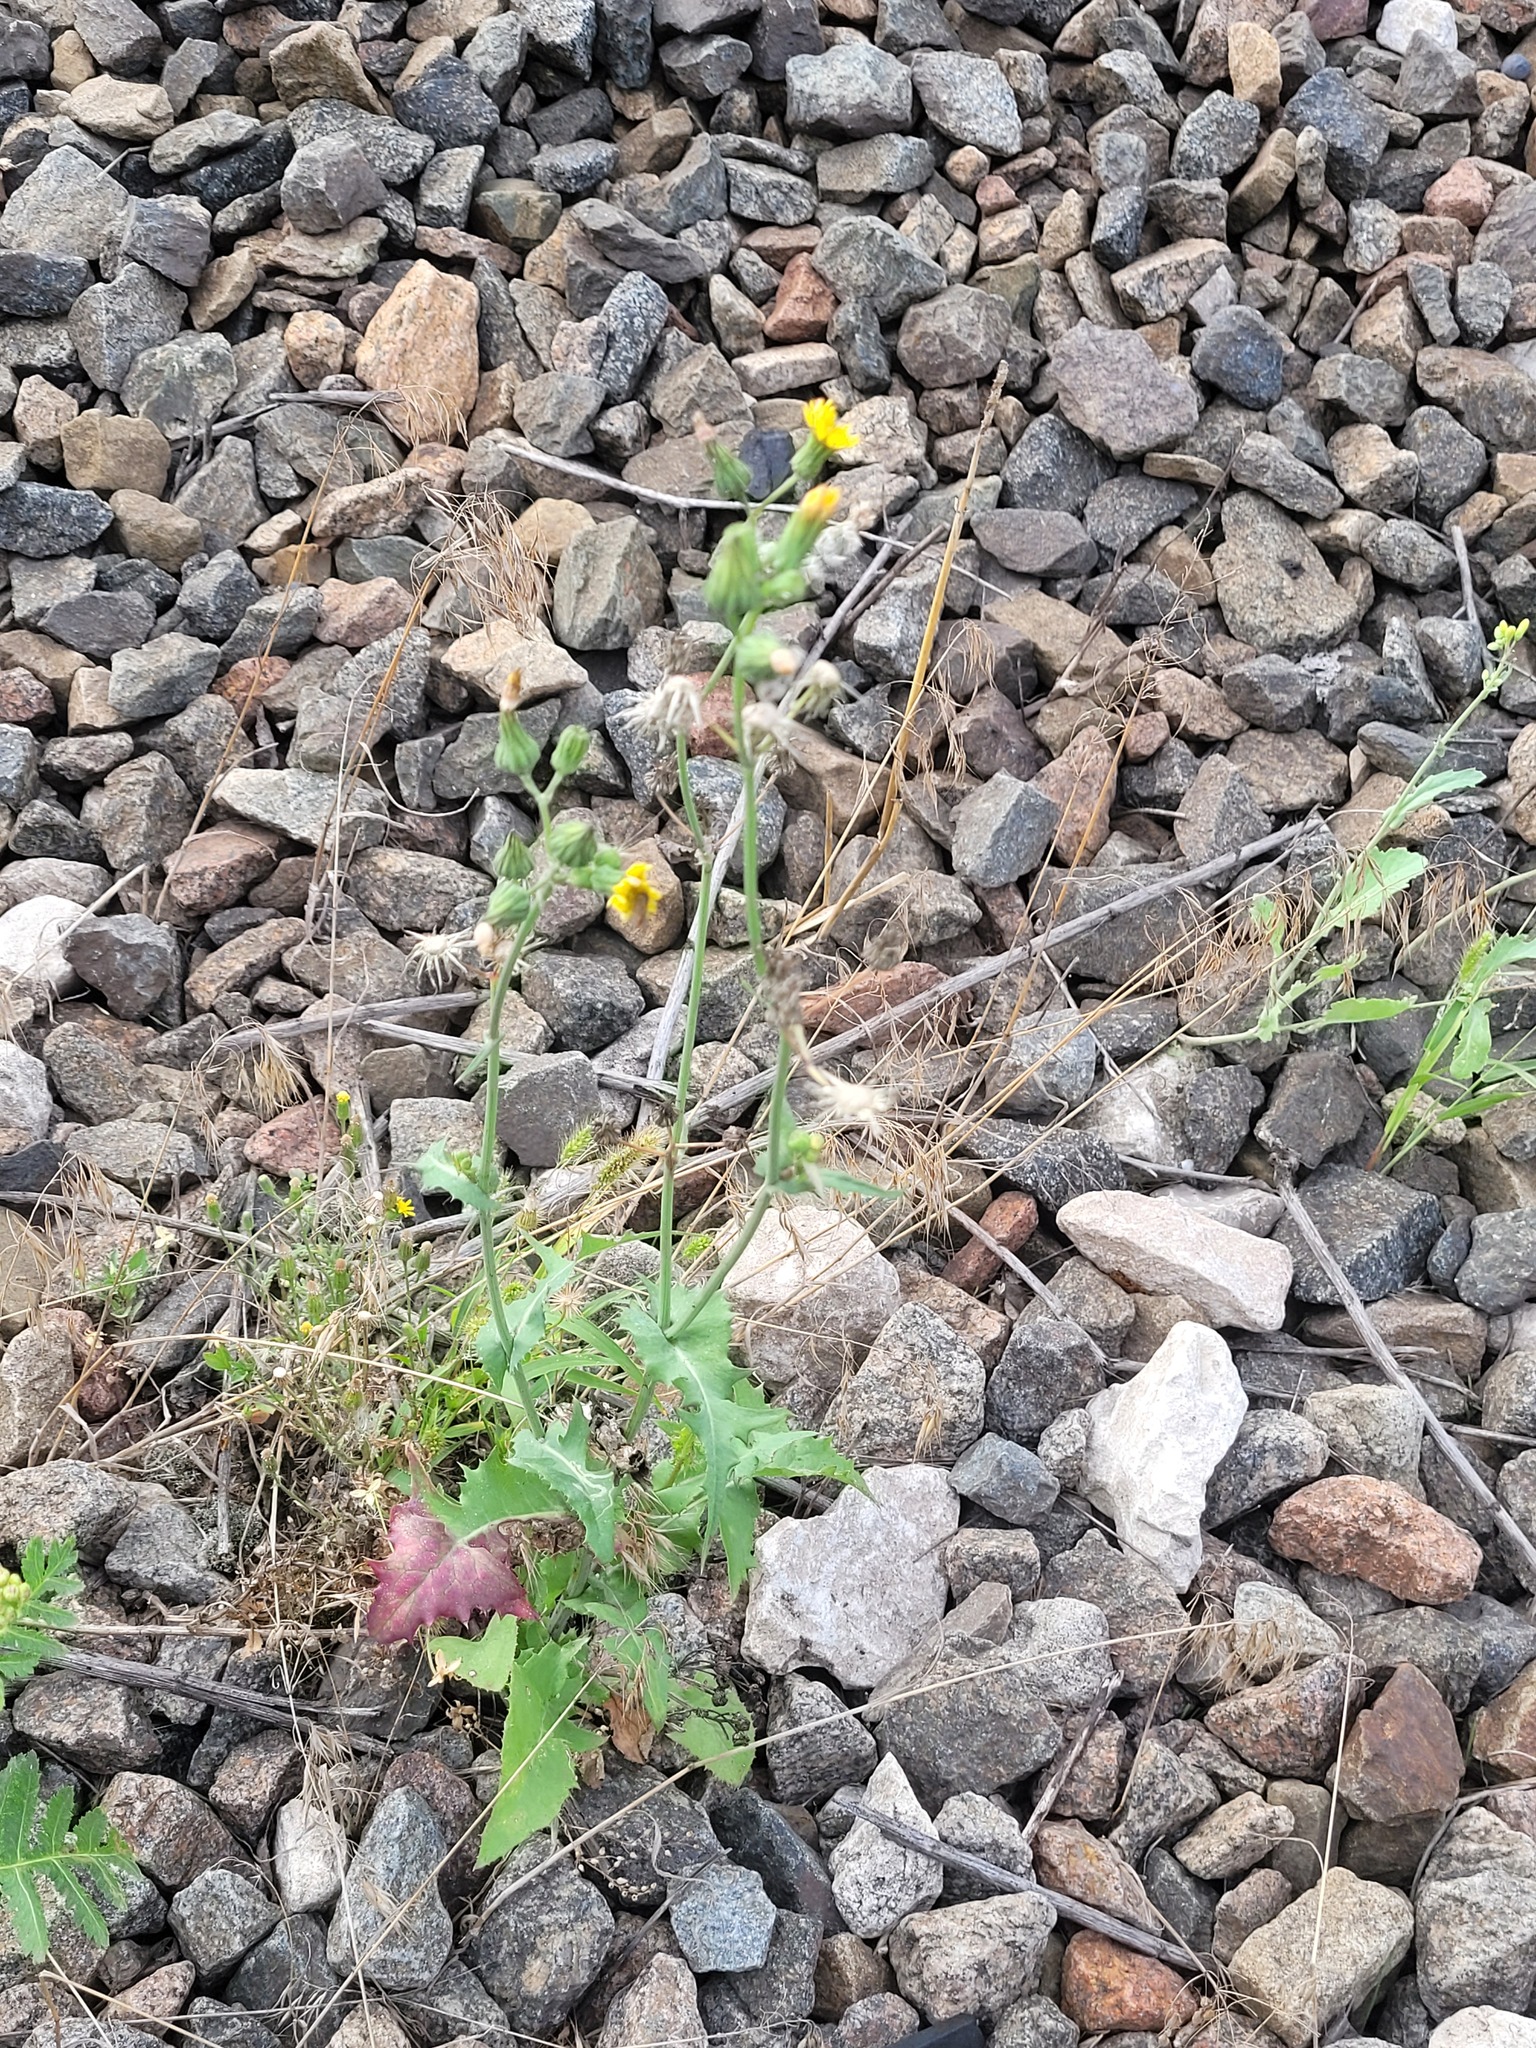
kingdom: Plantae
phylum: Tracheophyta
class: Magnoliopsida
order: Asterales
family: Asteraceae
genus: Sonchus
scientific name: Sonchus oleraceus
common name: Common sowthistle
